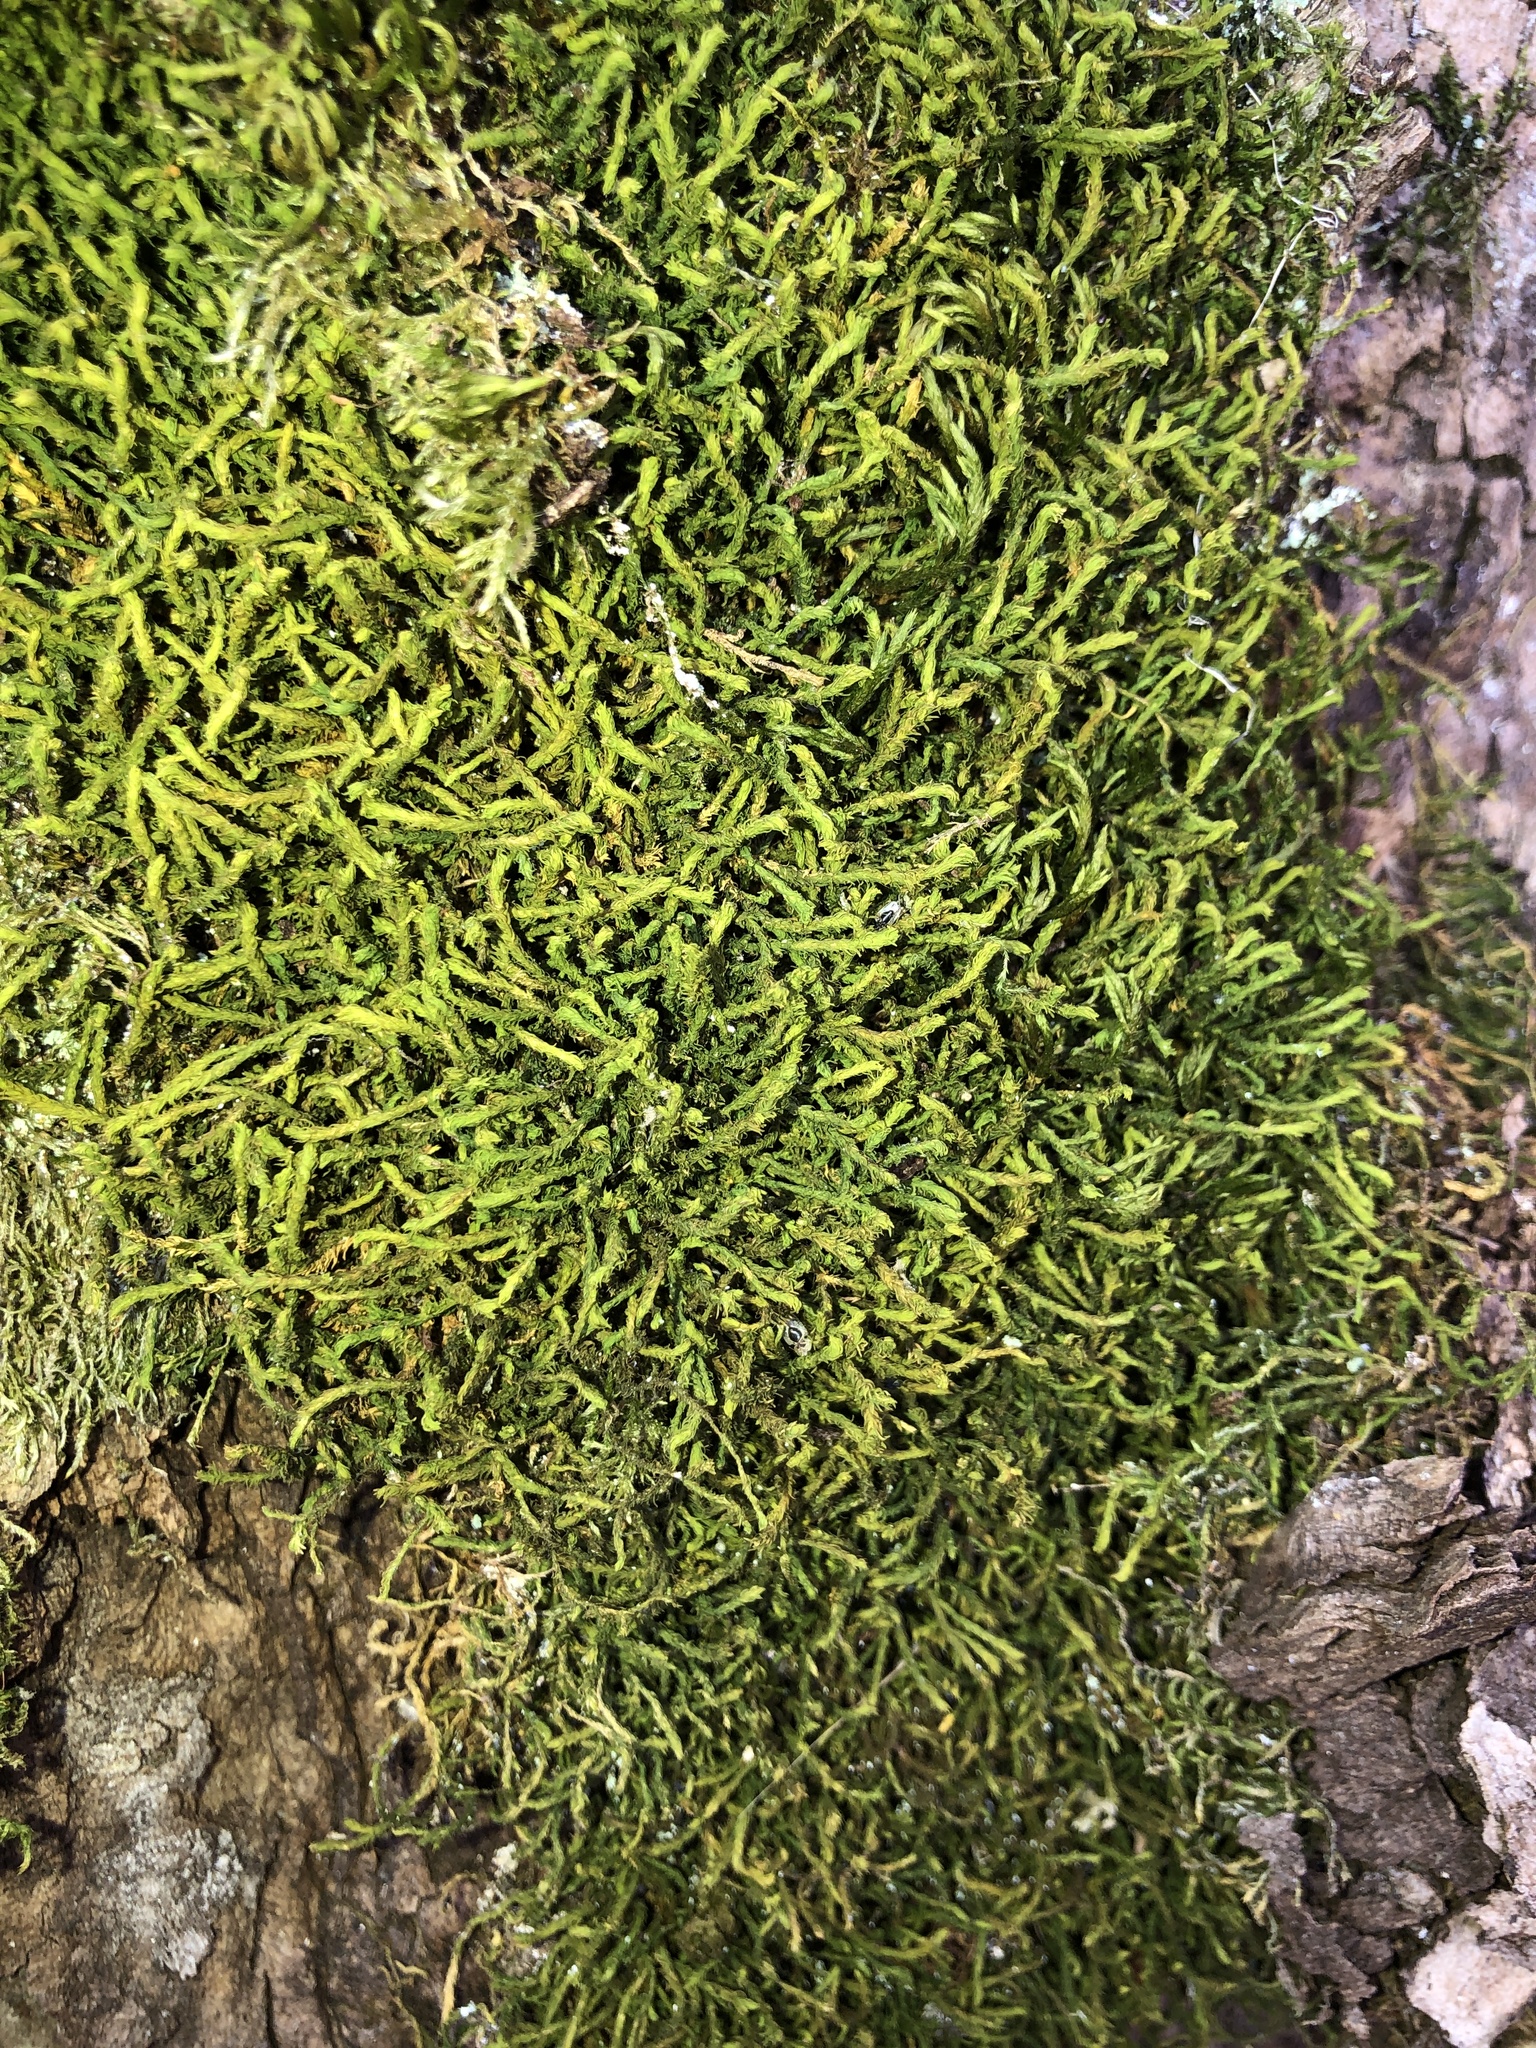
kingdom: Plantae
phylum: Bryophyta
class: Bryopsida
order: Hypnales
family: Anomodontaceae
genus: Anomodon
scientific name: Anomodon viticulosus
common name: Tall anomodon
